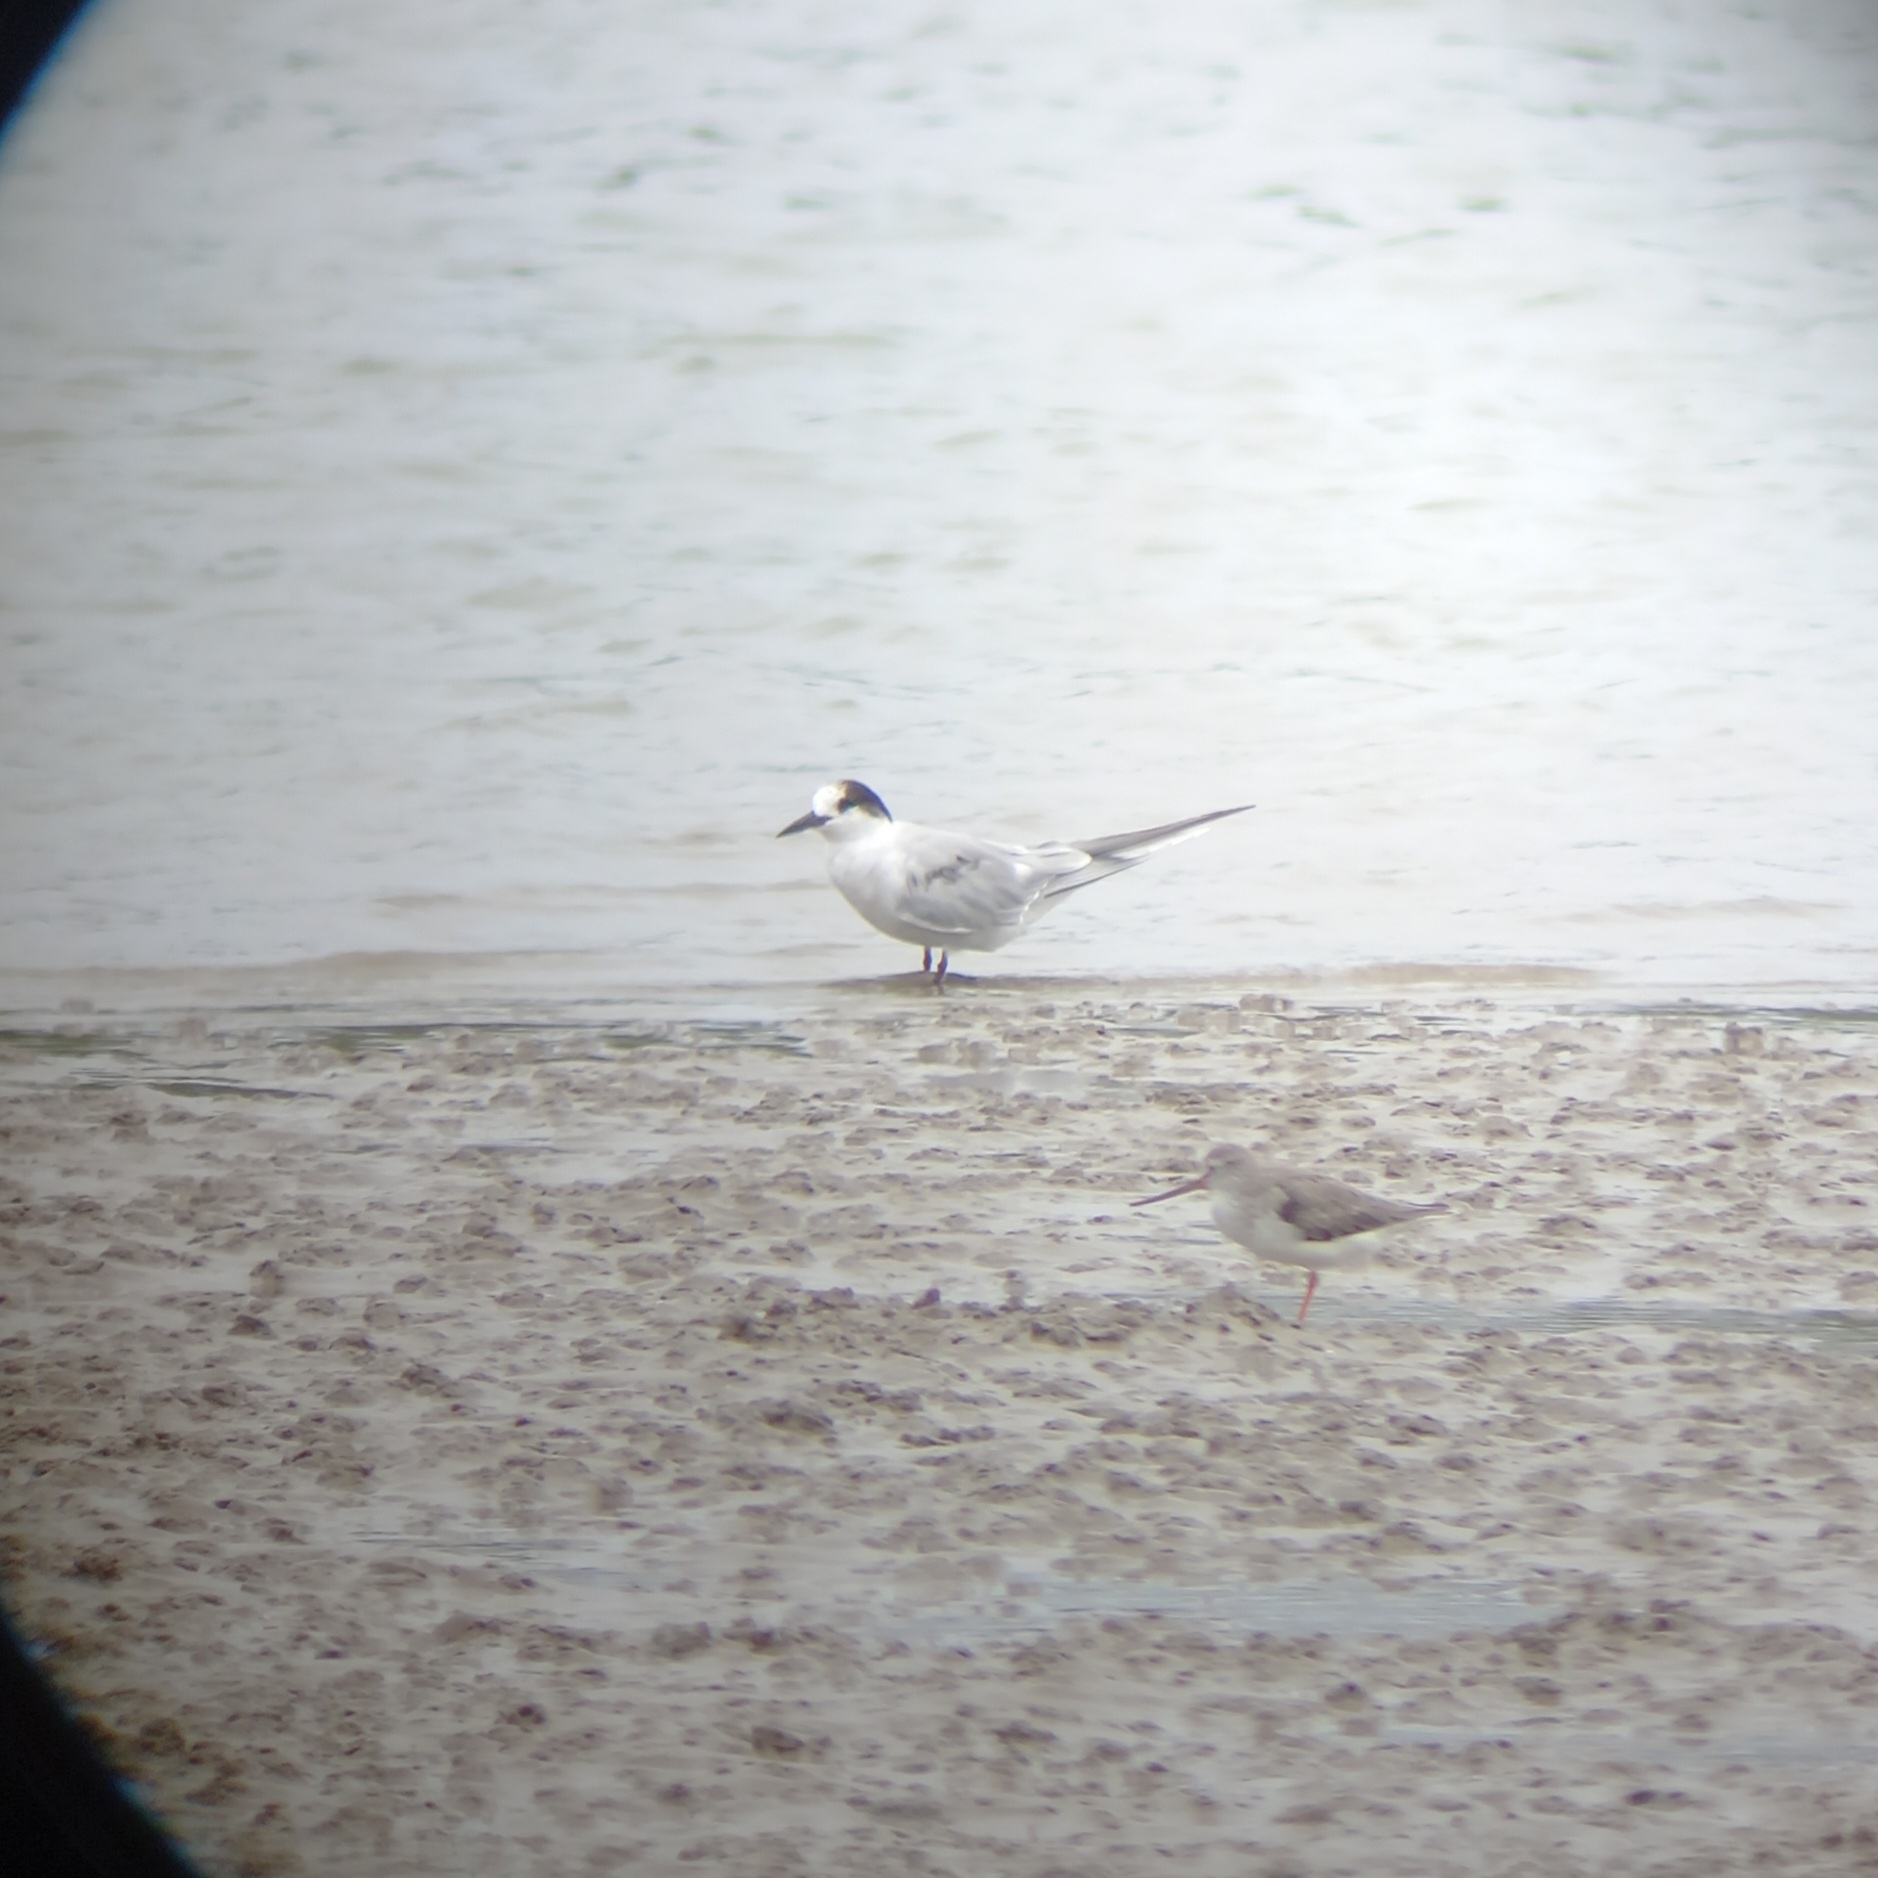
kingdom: Animalia
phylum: Chordata
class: Aves
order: Charadriiformes
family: Laridae
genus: Sterna
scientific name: Sterna hirundo
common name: Common tern
